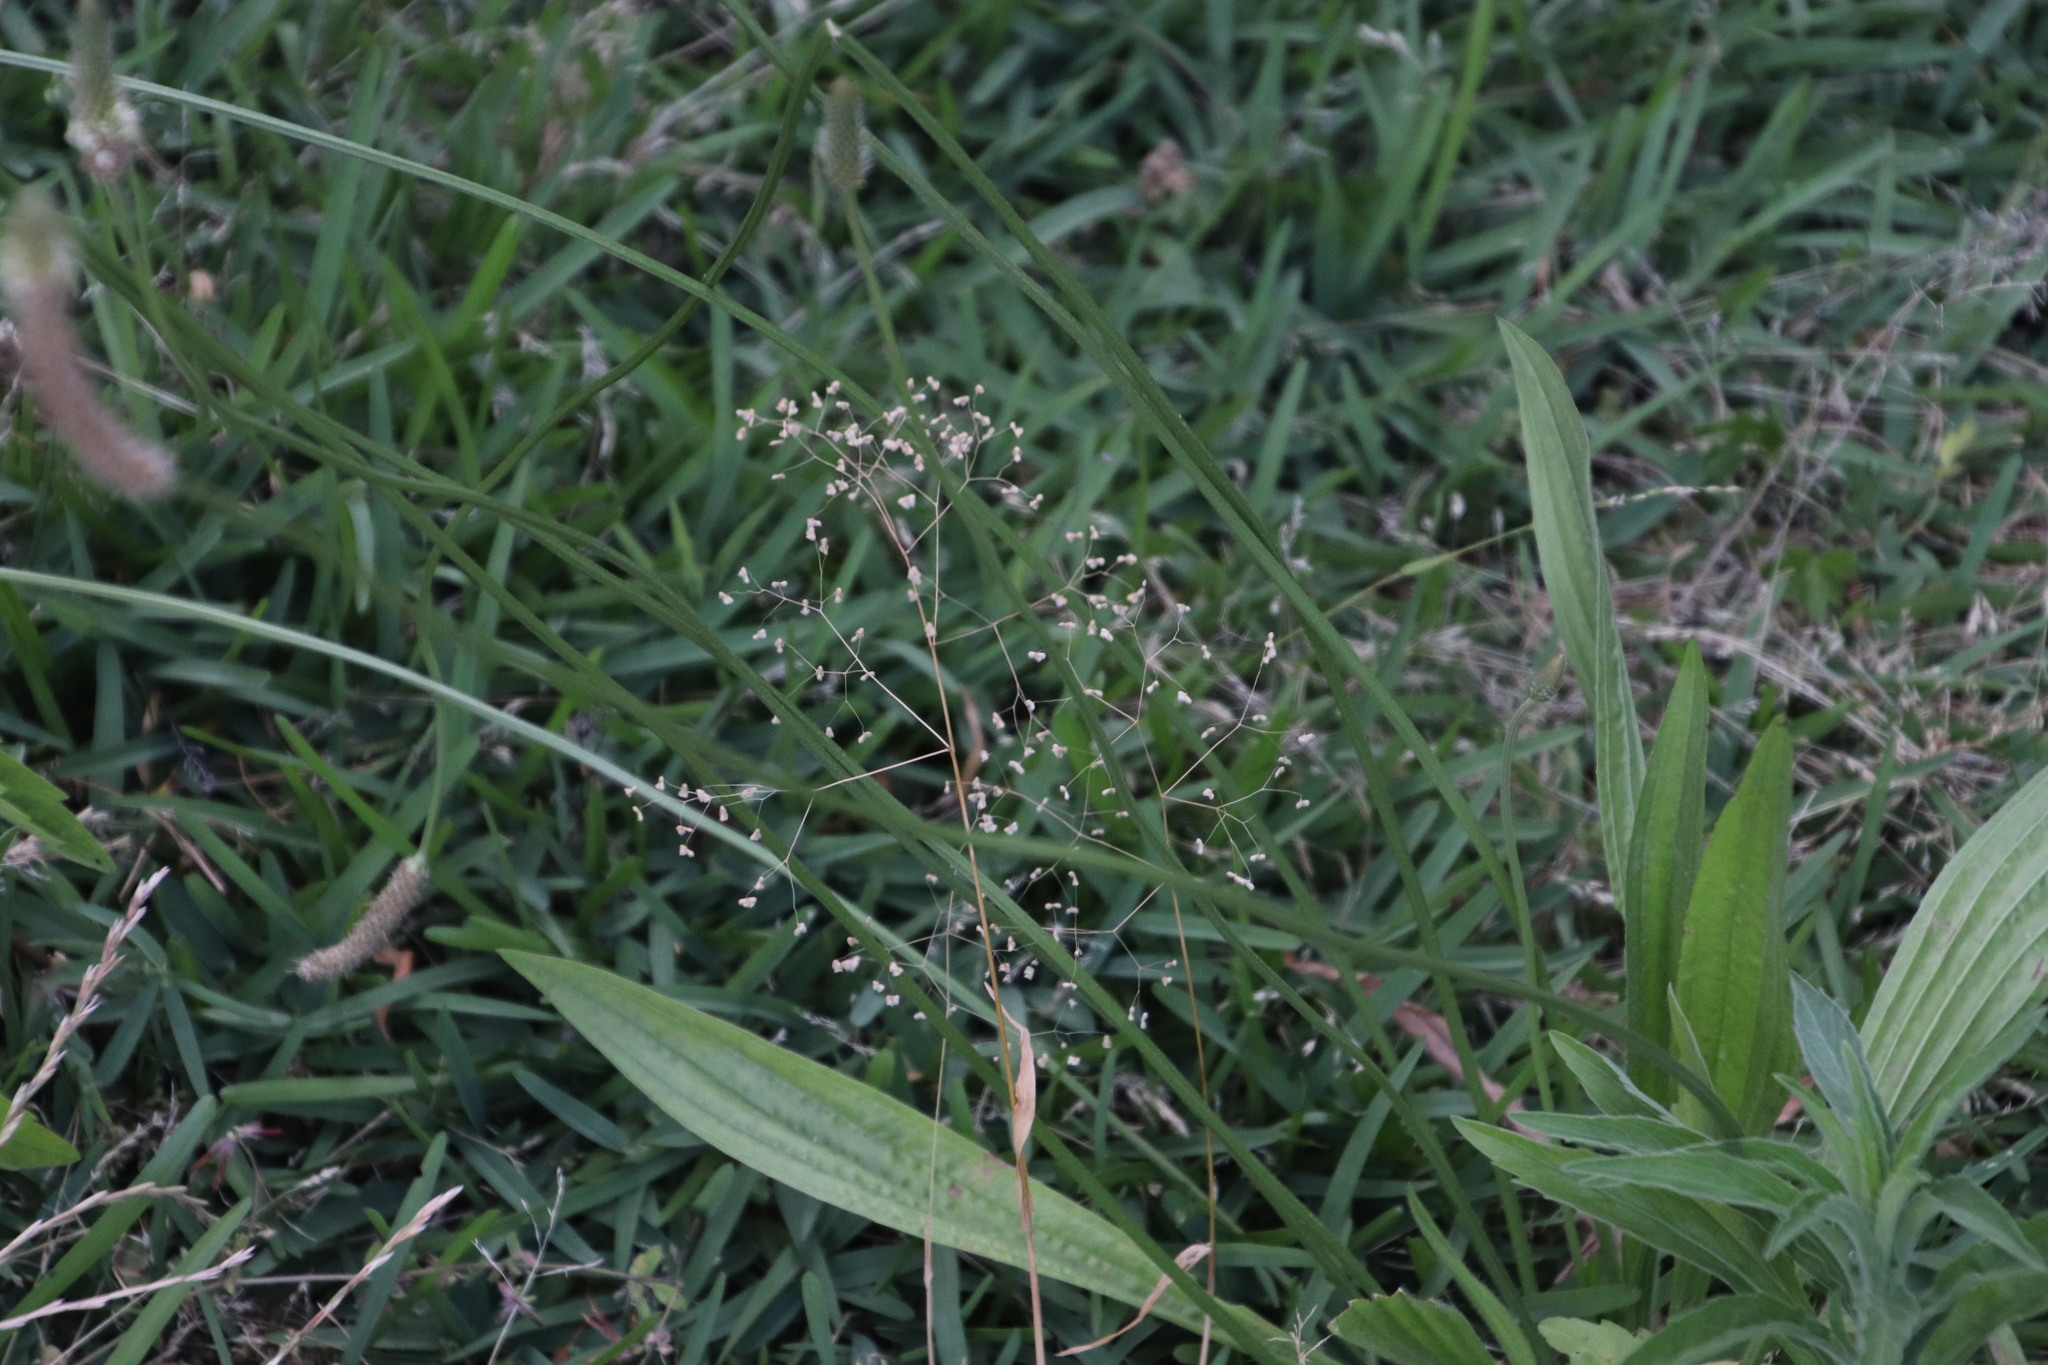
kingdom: Plantae
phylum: Tracheophyta
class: Liliopsida
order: Poales
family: Poaceae
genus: Briza
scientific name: Briza minor
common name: Lesser quaking-grass
